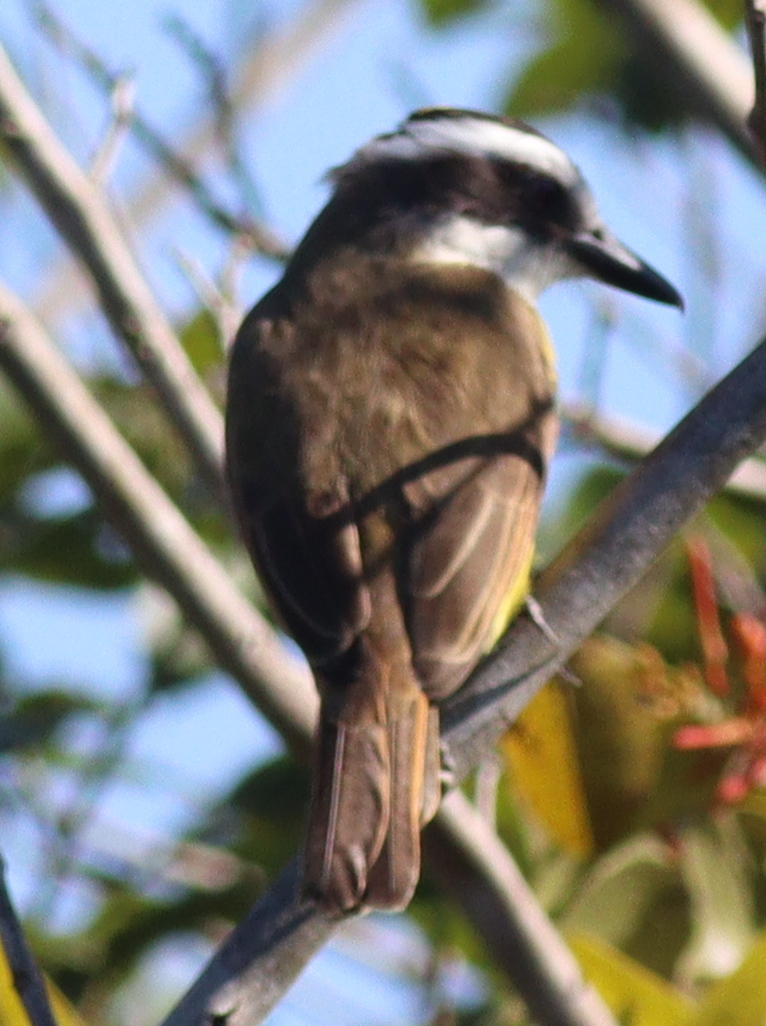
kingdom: Animalia
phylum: Chordata
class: Aves
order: Passeriformes
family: Tyrannidae
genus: Pitangus
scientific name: Pitangus sulphuratus
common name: Great kiskadee
